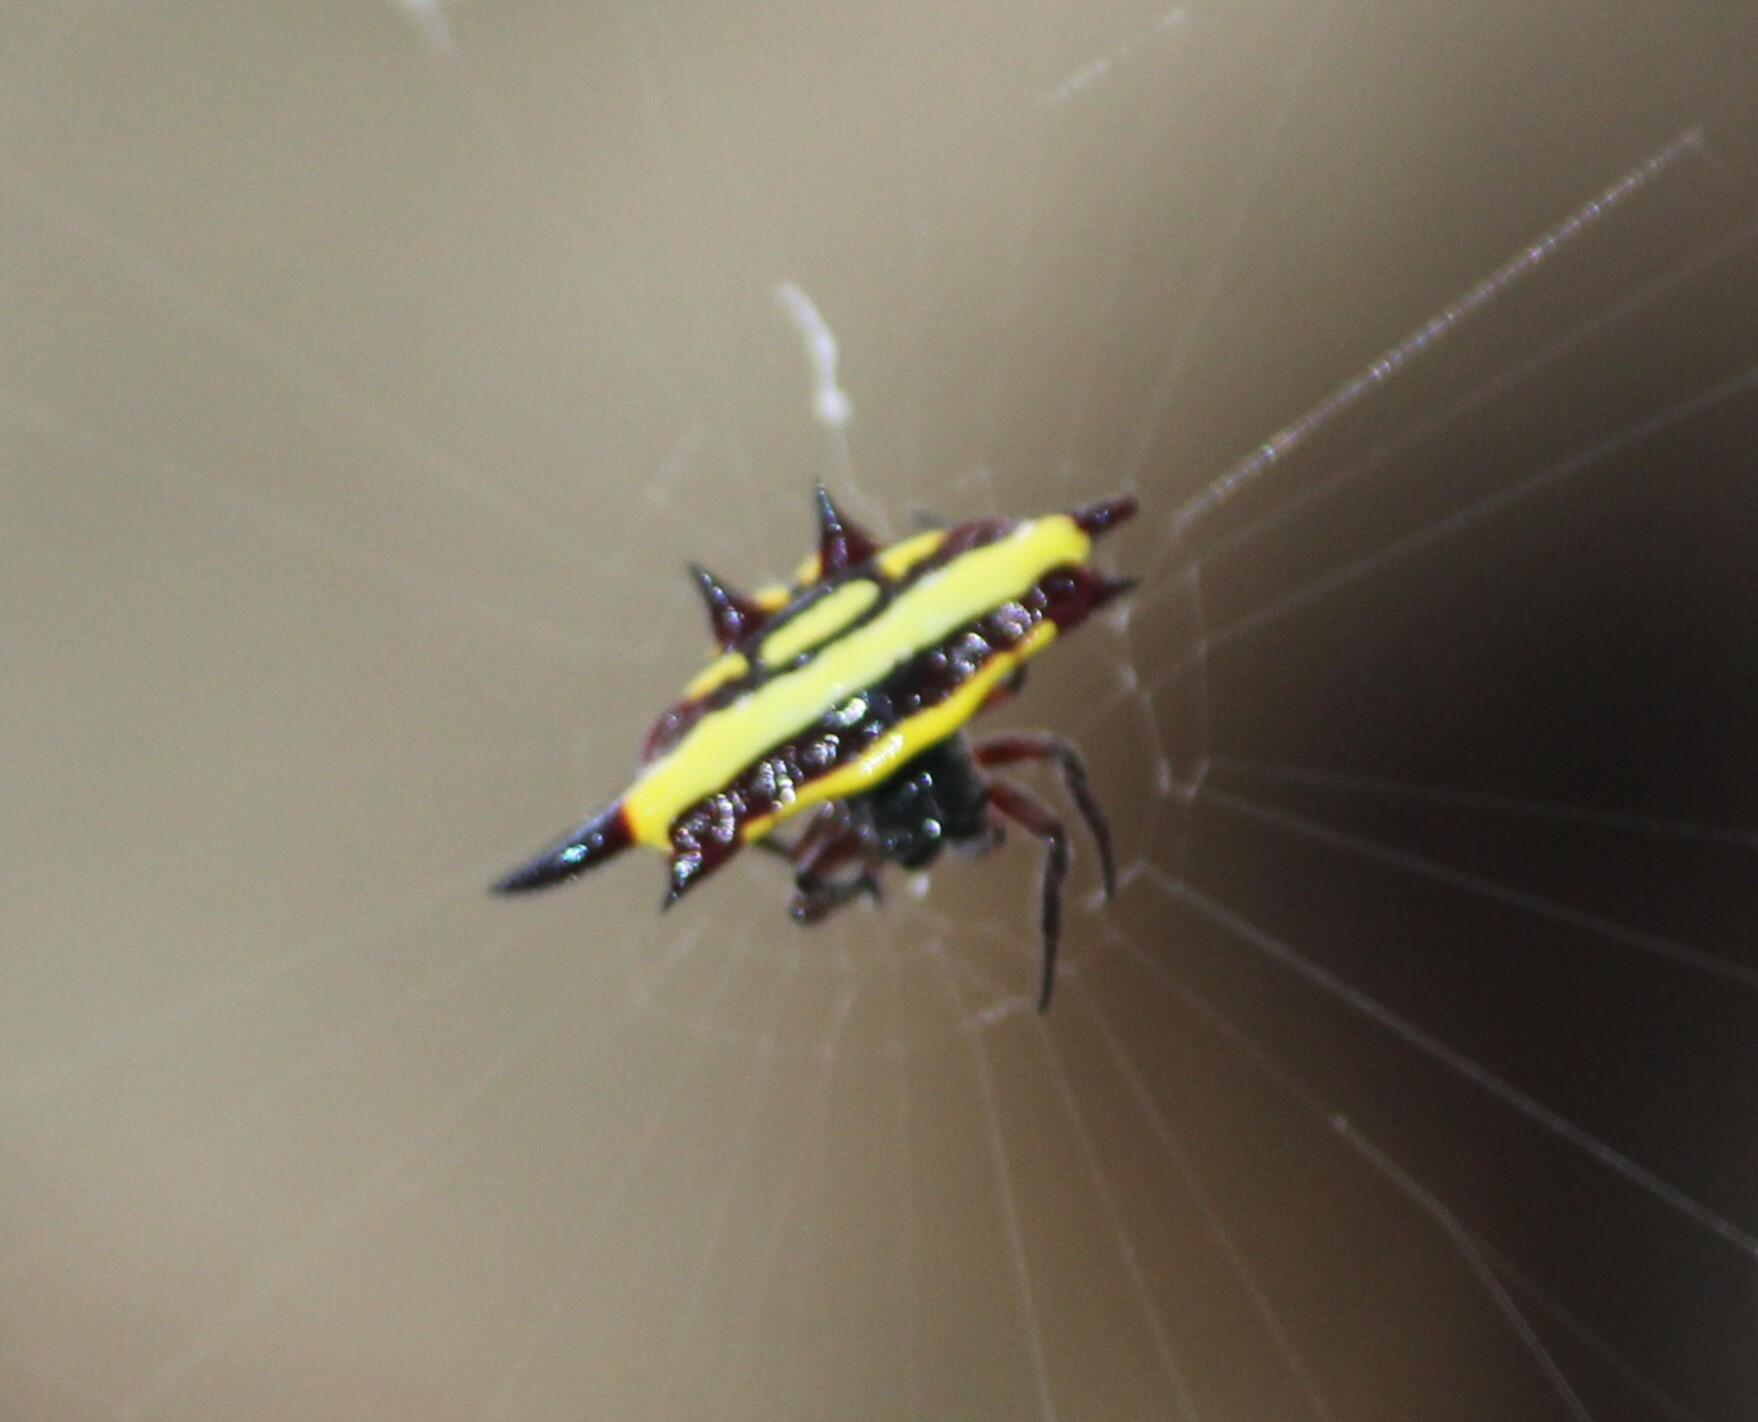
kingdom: Animalia
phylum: Arthropoda
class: Arachnida
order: Araneae
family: Araneidae
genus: Gasteracantha
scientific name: Gasteracantha fornicata
